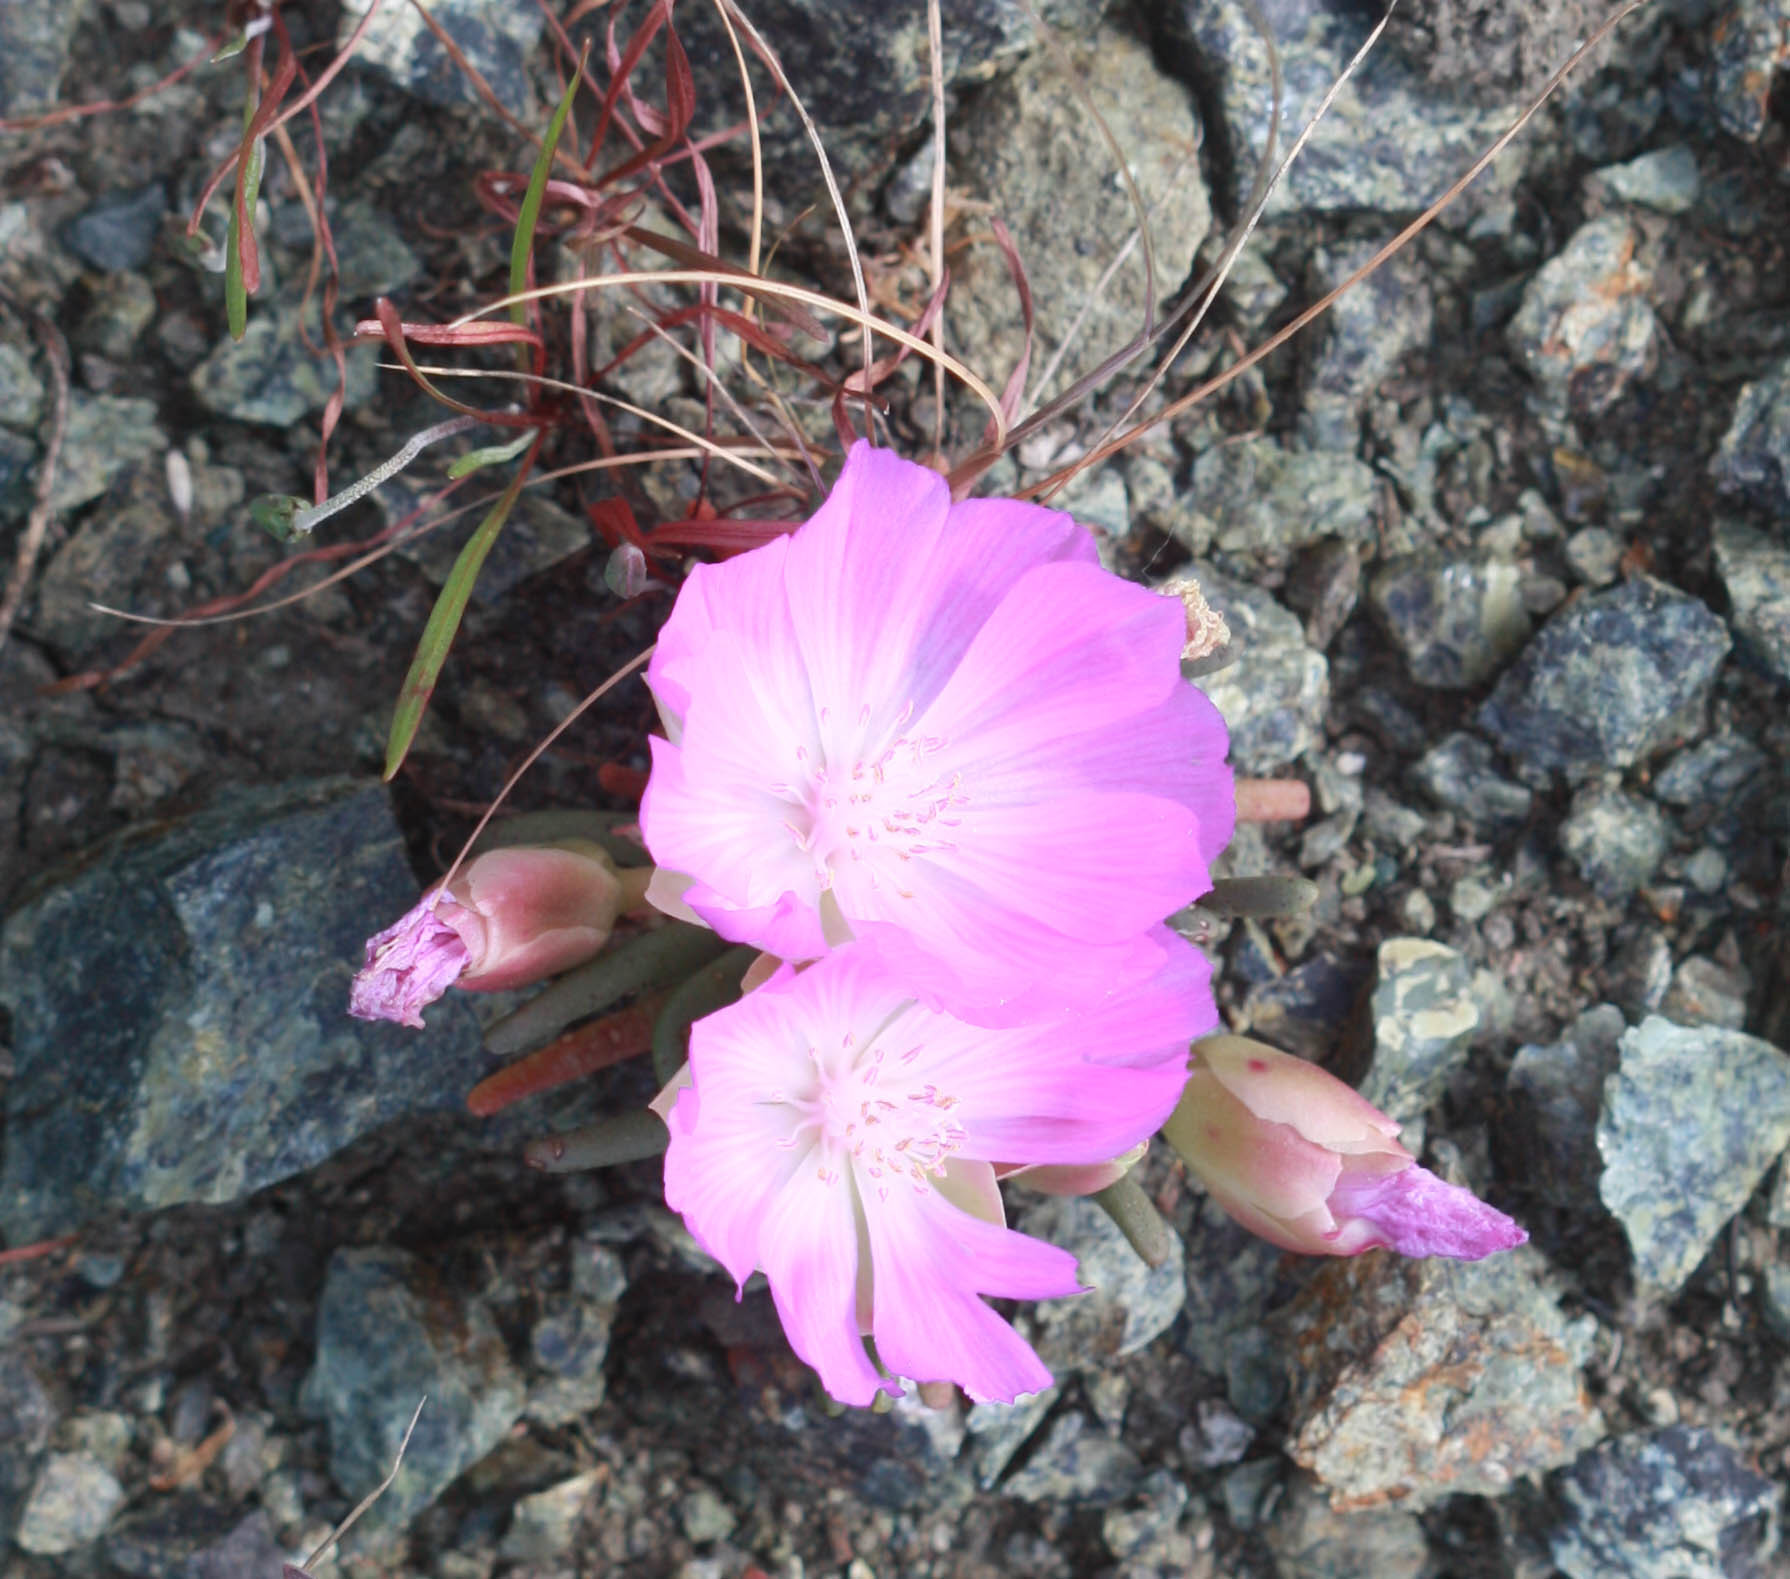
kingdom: Plantae
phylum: Tracheophyta
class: Magnoliopsida
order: Caryophyllales
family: Montiaceae
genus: Lewisia
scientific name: Lewisia rediviva
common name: Bitter-root
